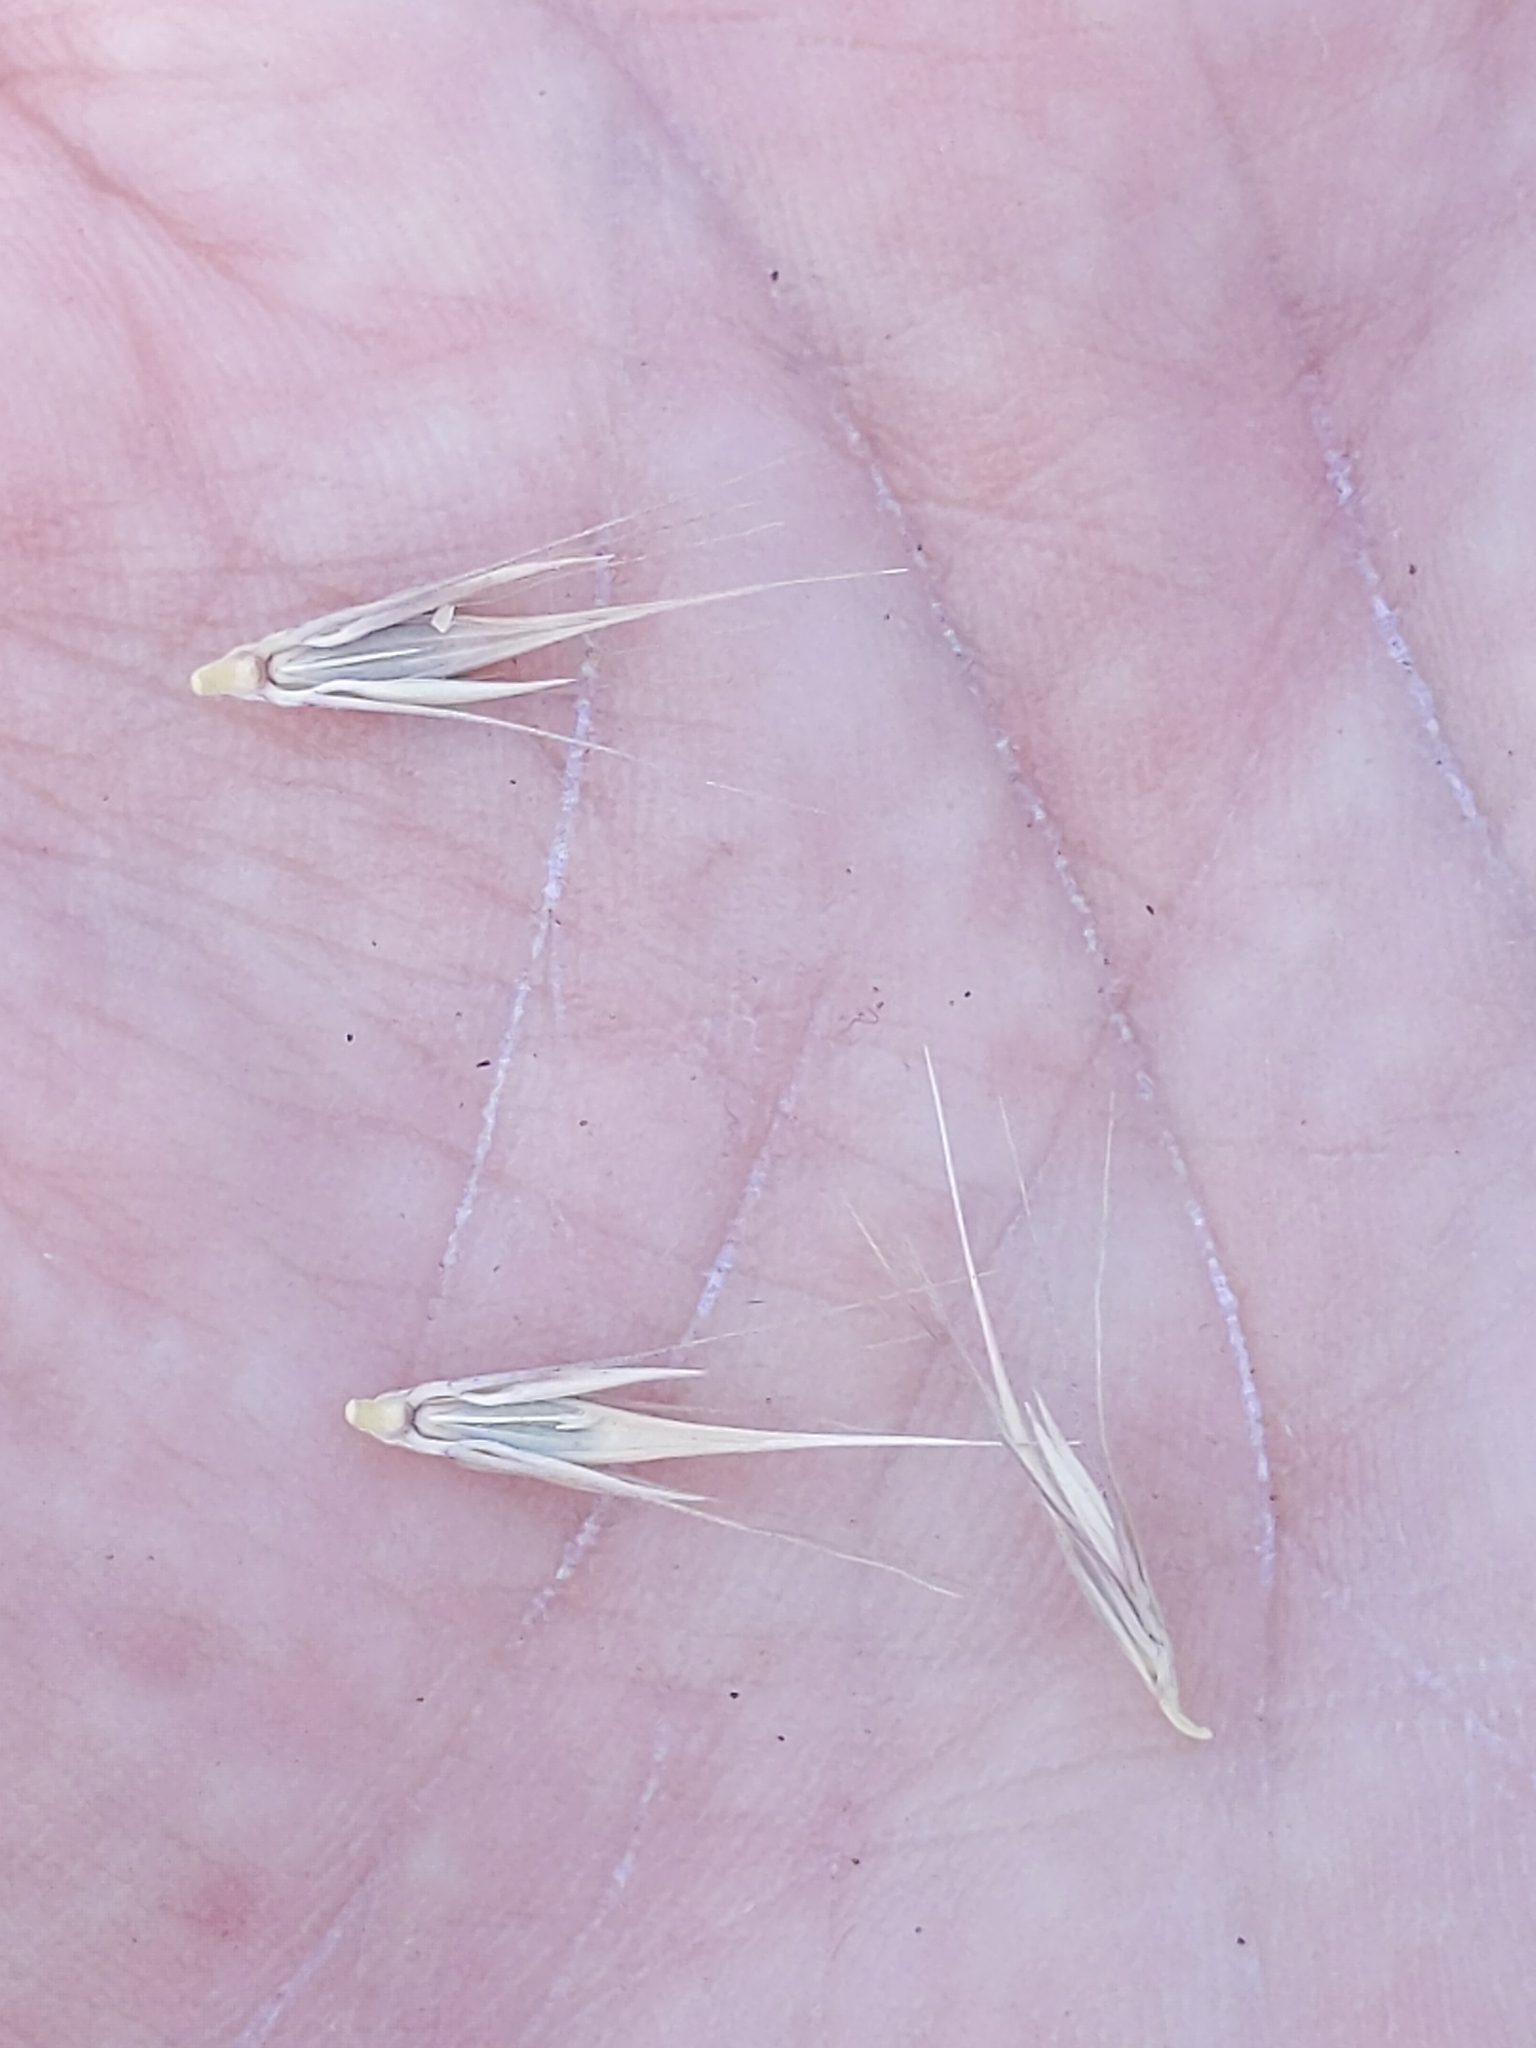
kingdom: Plantae
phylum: Tracheophyta
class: Liliopsida
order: Poales
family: Poaceae
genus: Hordeum
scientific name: Hordeum brachyantherum
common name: Meadow barley
